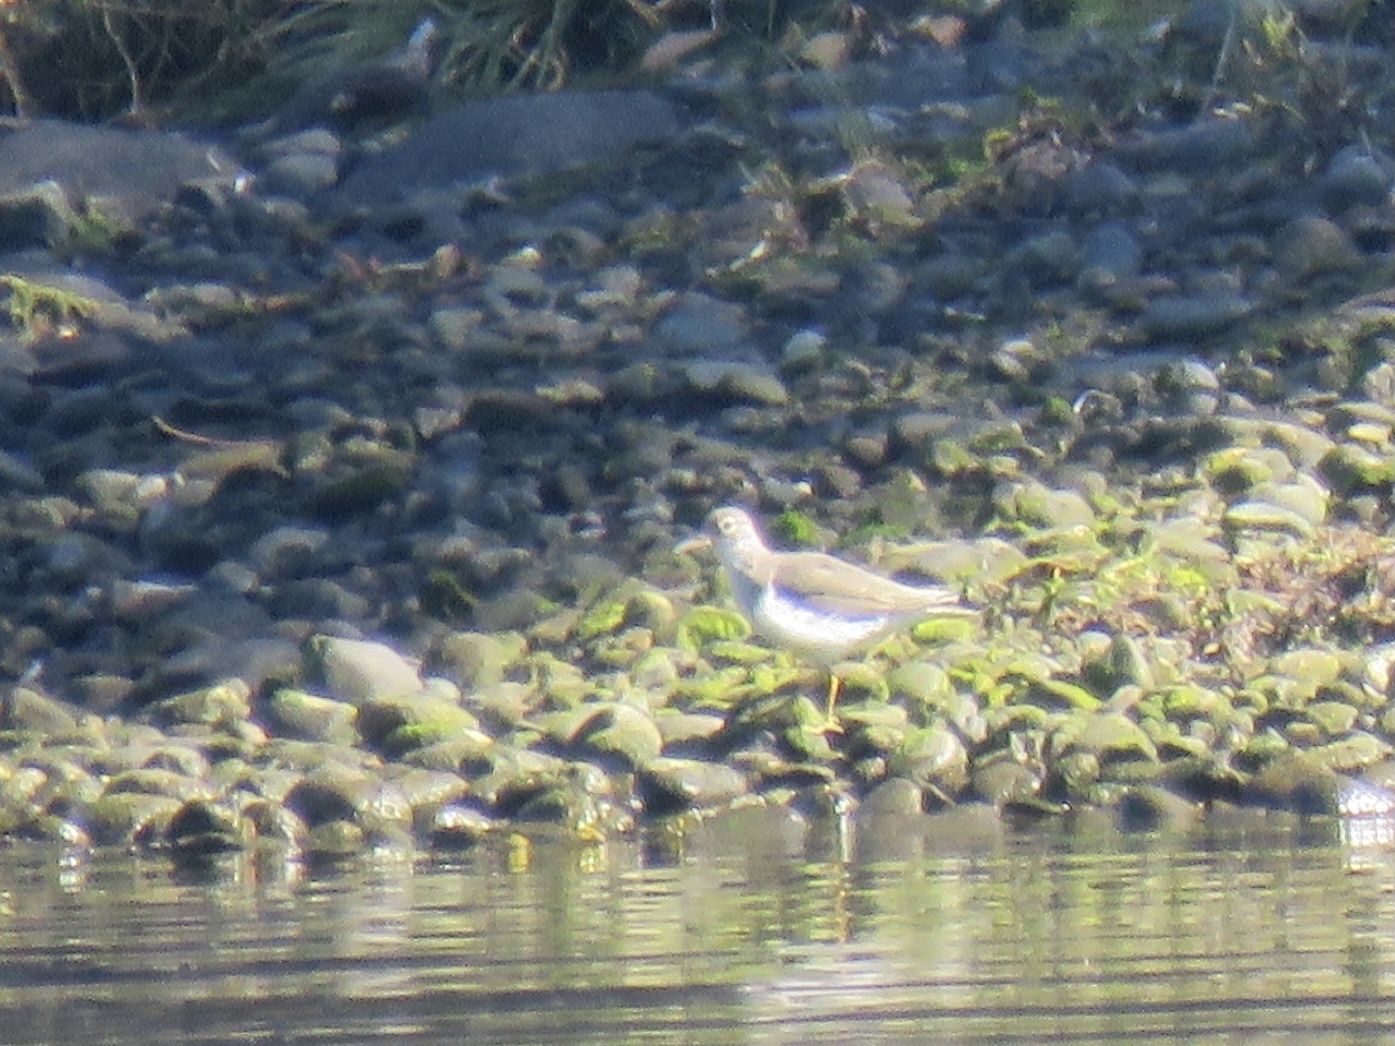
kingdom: Animalia
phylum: Chordata
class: Aves
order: Charadriiformes
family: Scolopacidae
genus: Actitis
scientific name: Actitis macularius
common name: Spotted sandpiper
